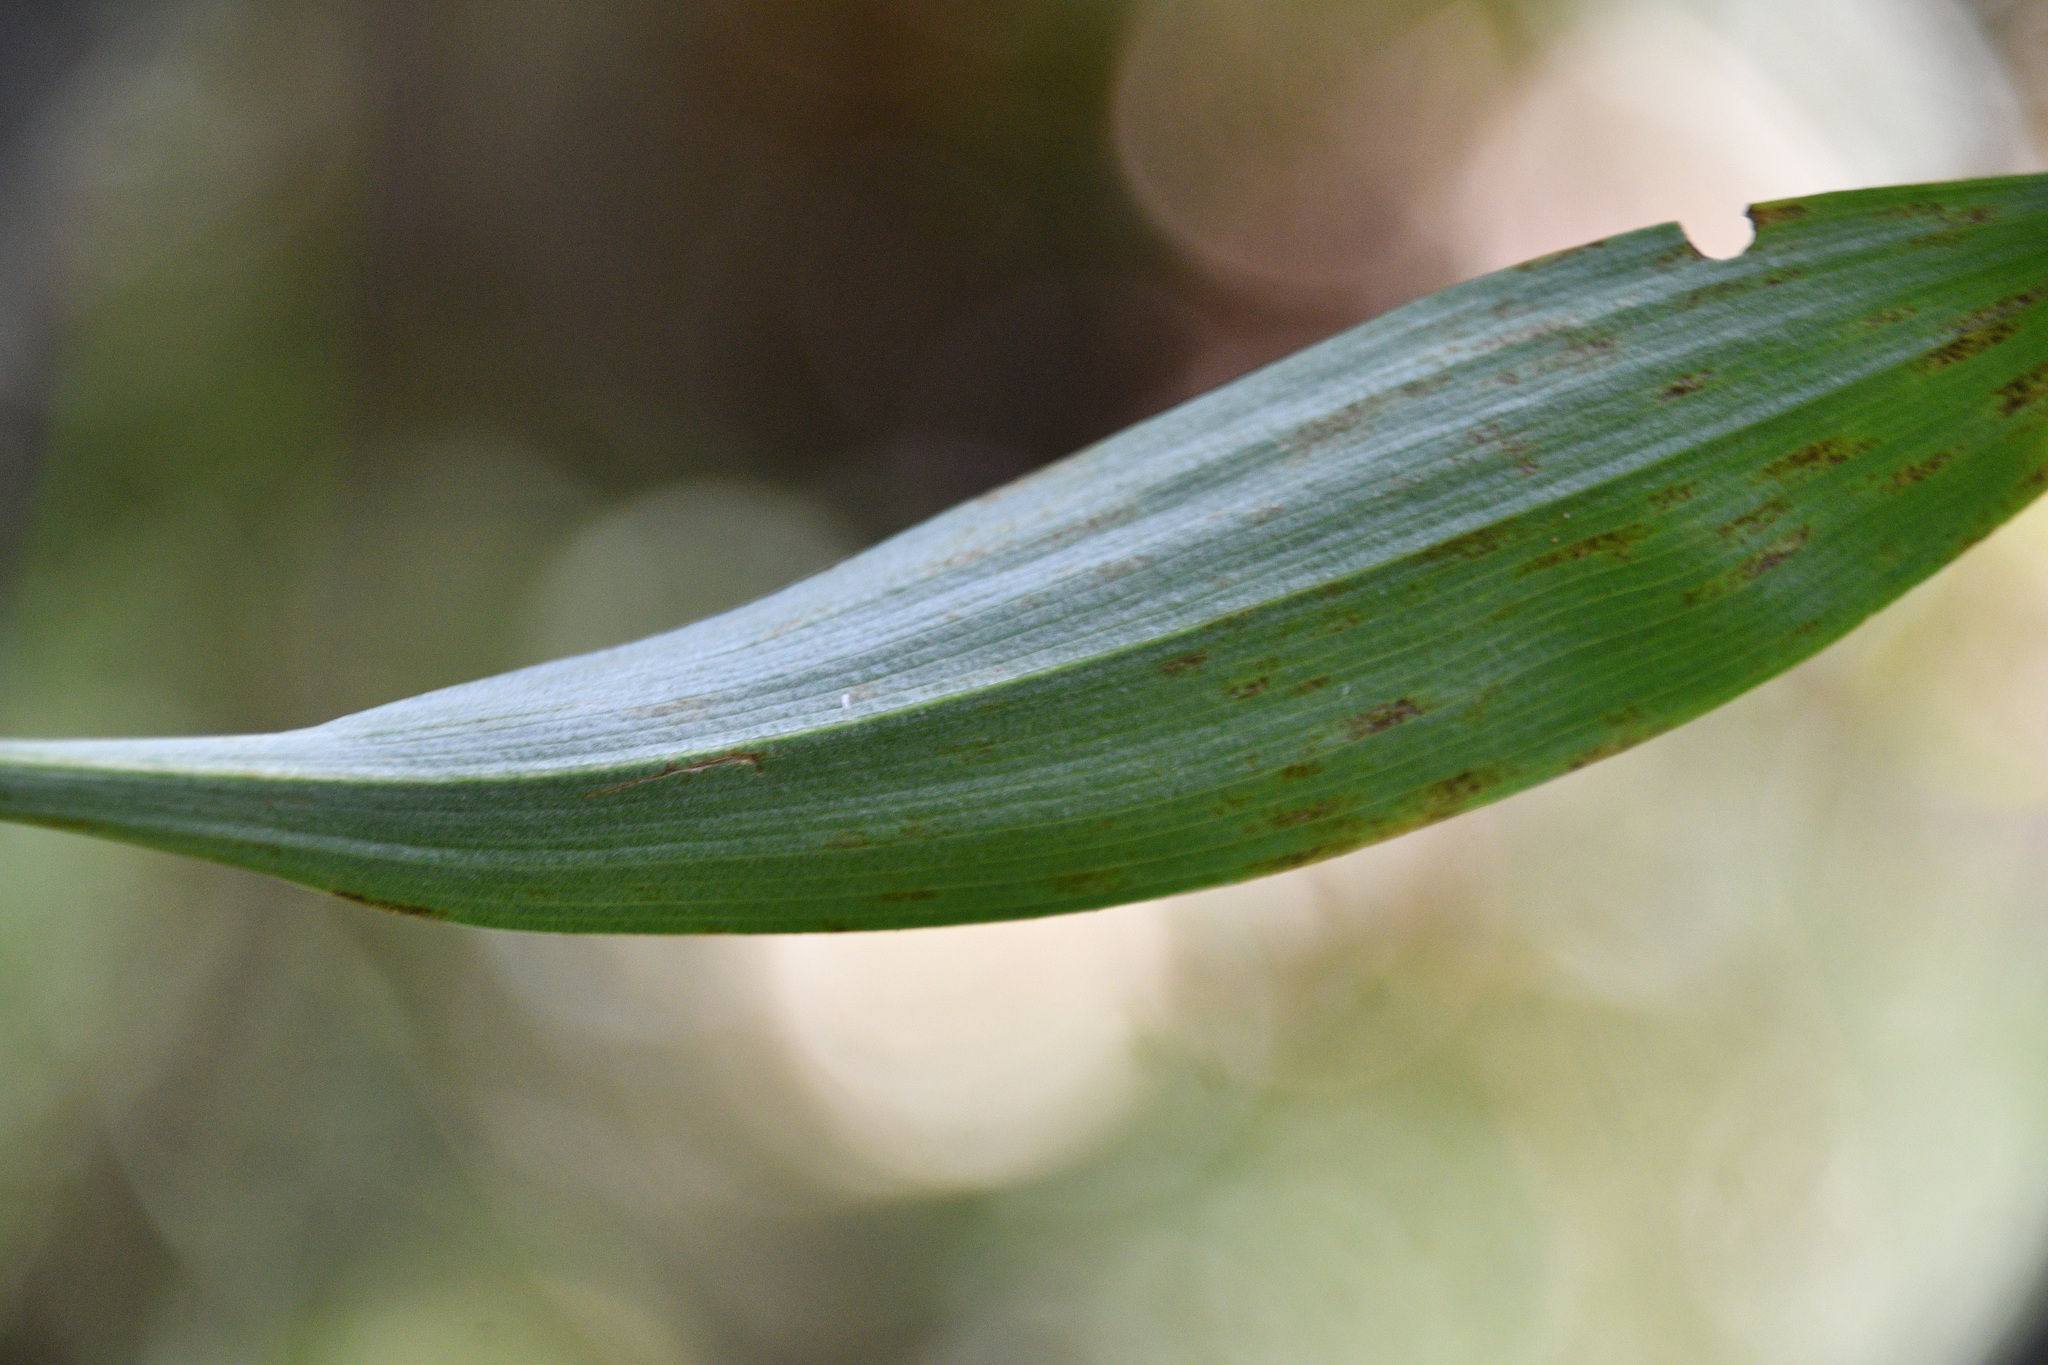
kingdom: Plantae
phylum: Tracheophyta
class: Liliopsida
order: Asparagales
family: Asparagaceae
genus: Maianthemum
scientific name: Maianthemum trifolium
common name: Swamp false solomon's seal
